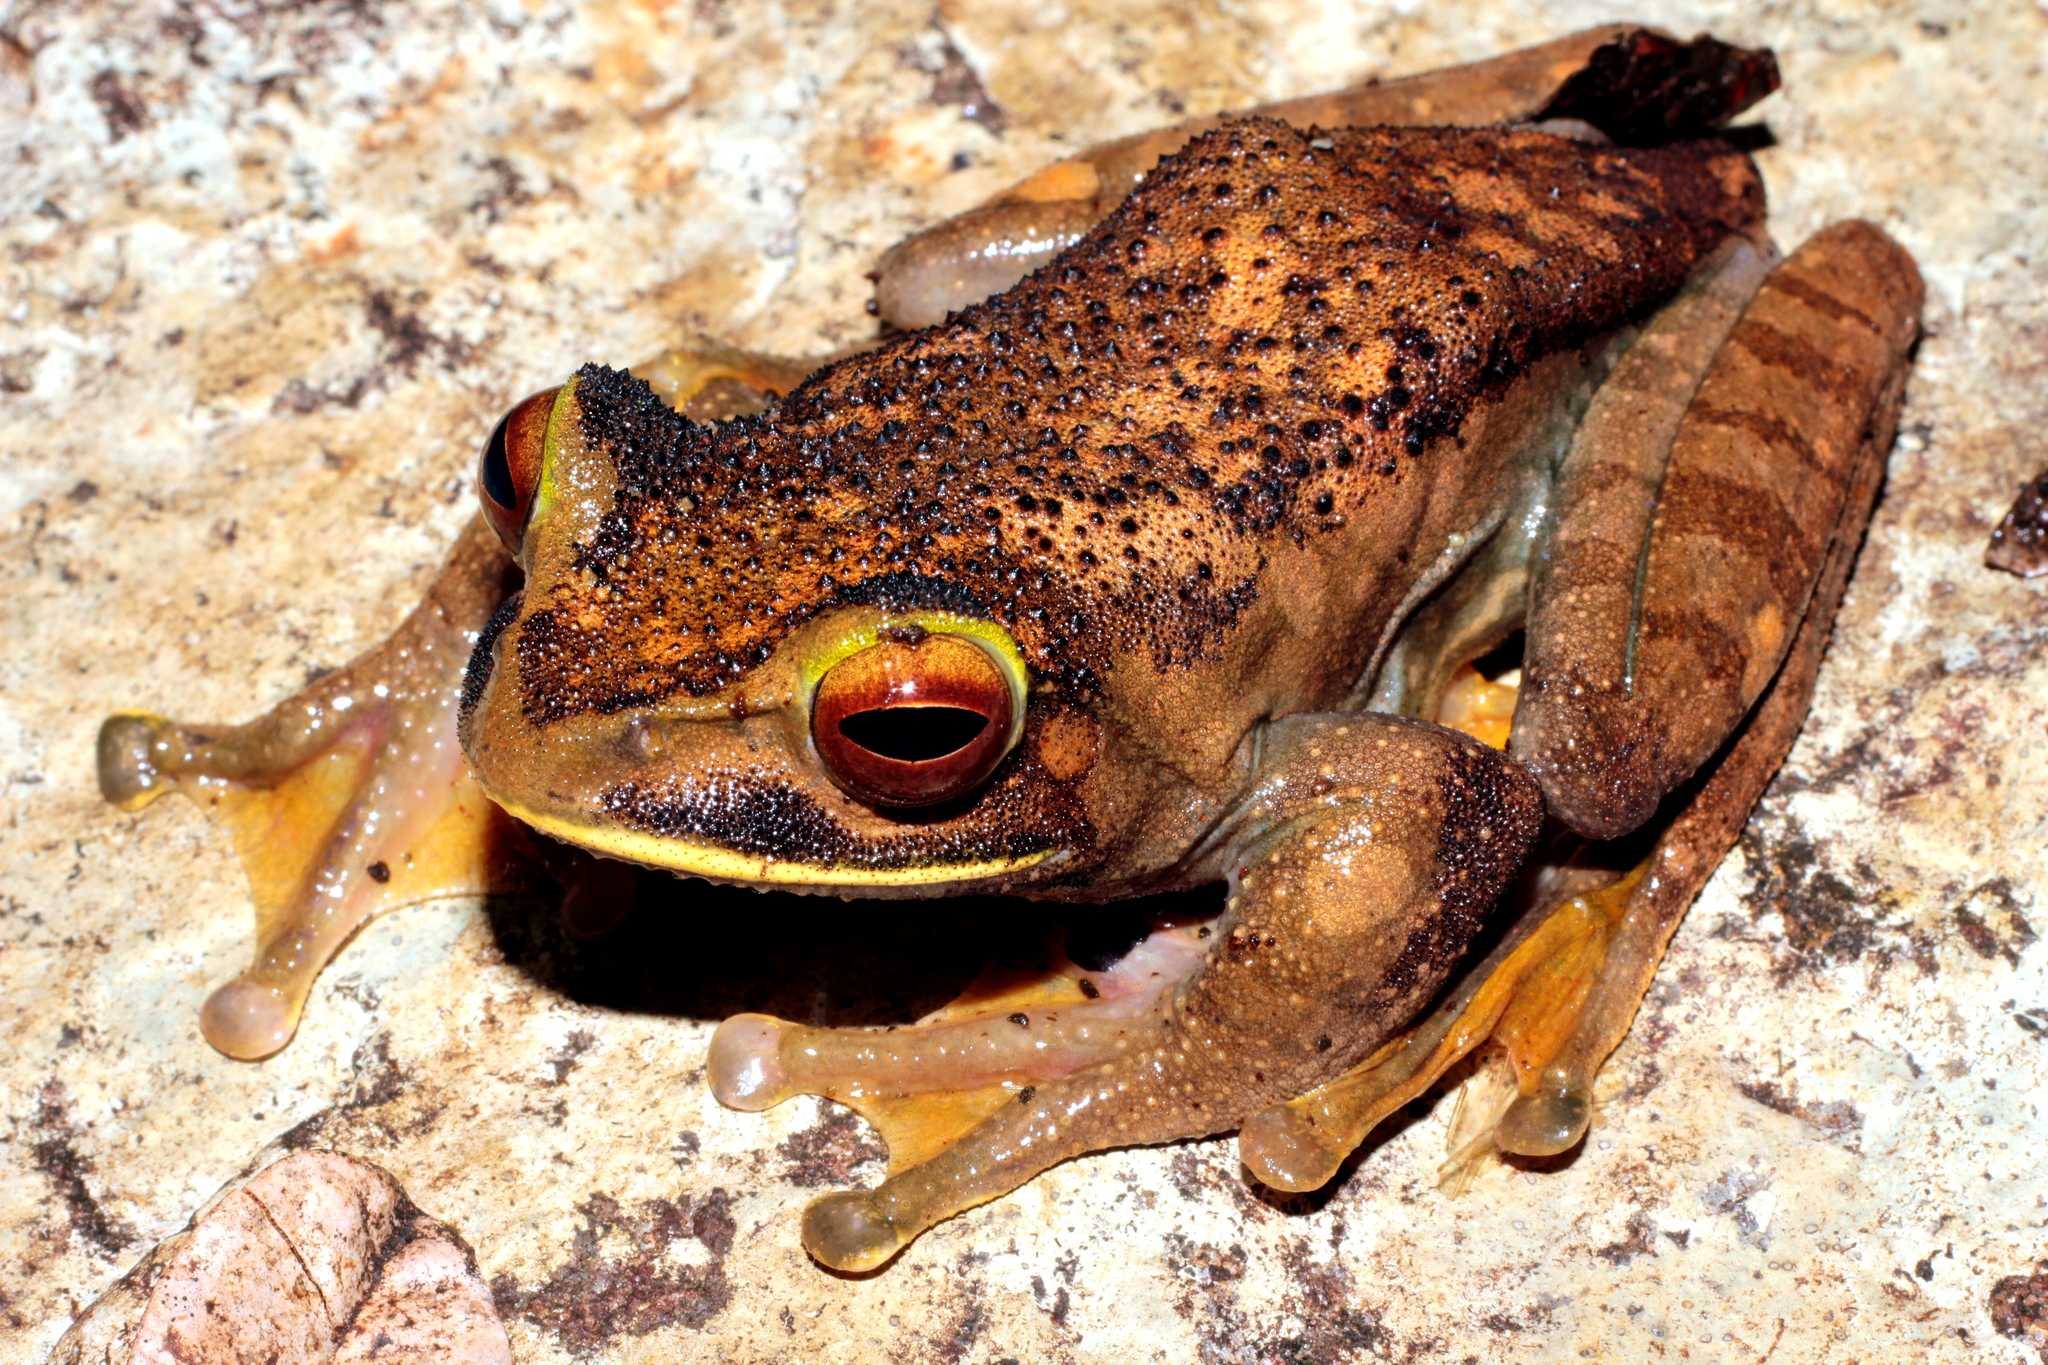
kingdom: Animalia
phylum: Chordata
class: Amphibia
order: Anura
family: Mantellidae
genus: Boophis
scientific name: Boophis albilabris
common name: White-lipped bright-eyed frog
